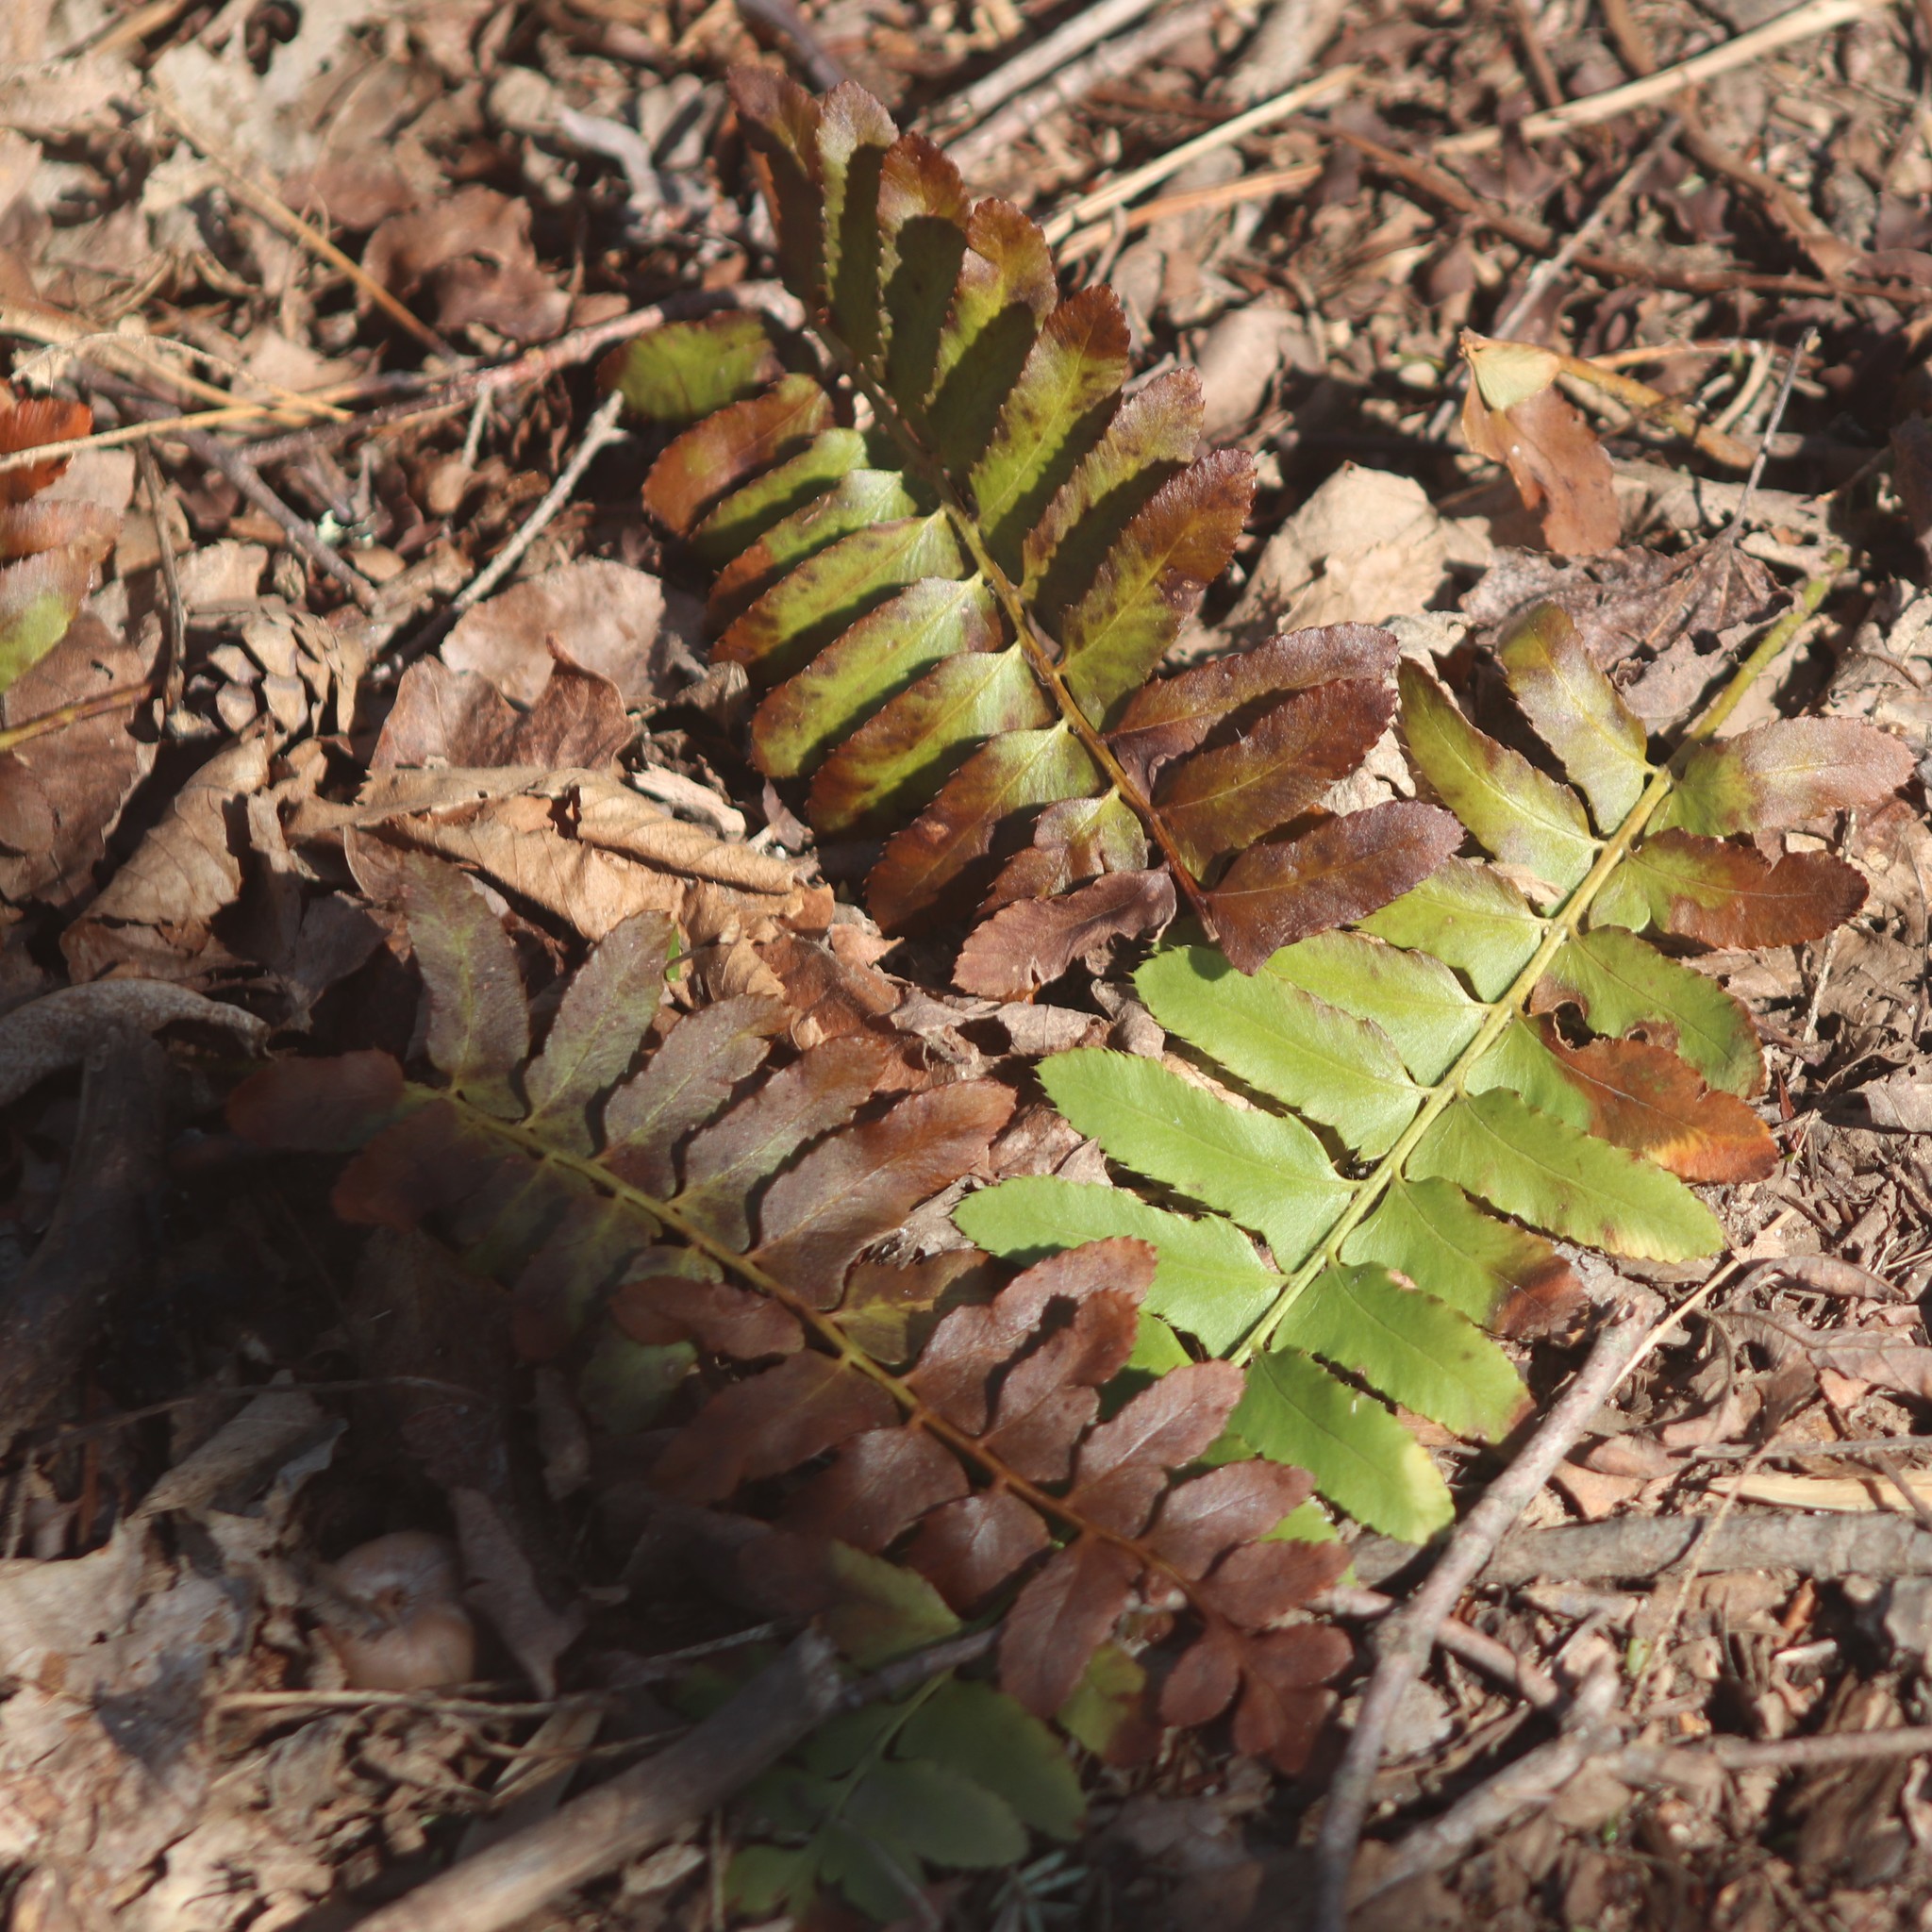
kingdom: Plantae
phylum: Tracheophyta
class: Polypodiopsida
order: Polypodiales
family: Dryopteridaceae
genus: Polystichum
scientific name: Polystichum acrostichoides
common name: Christmas fern
